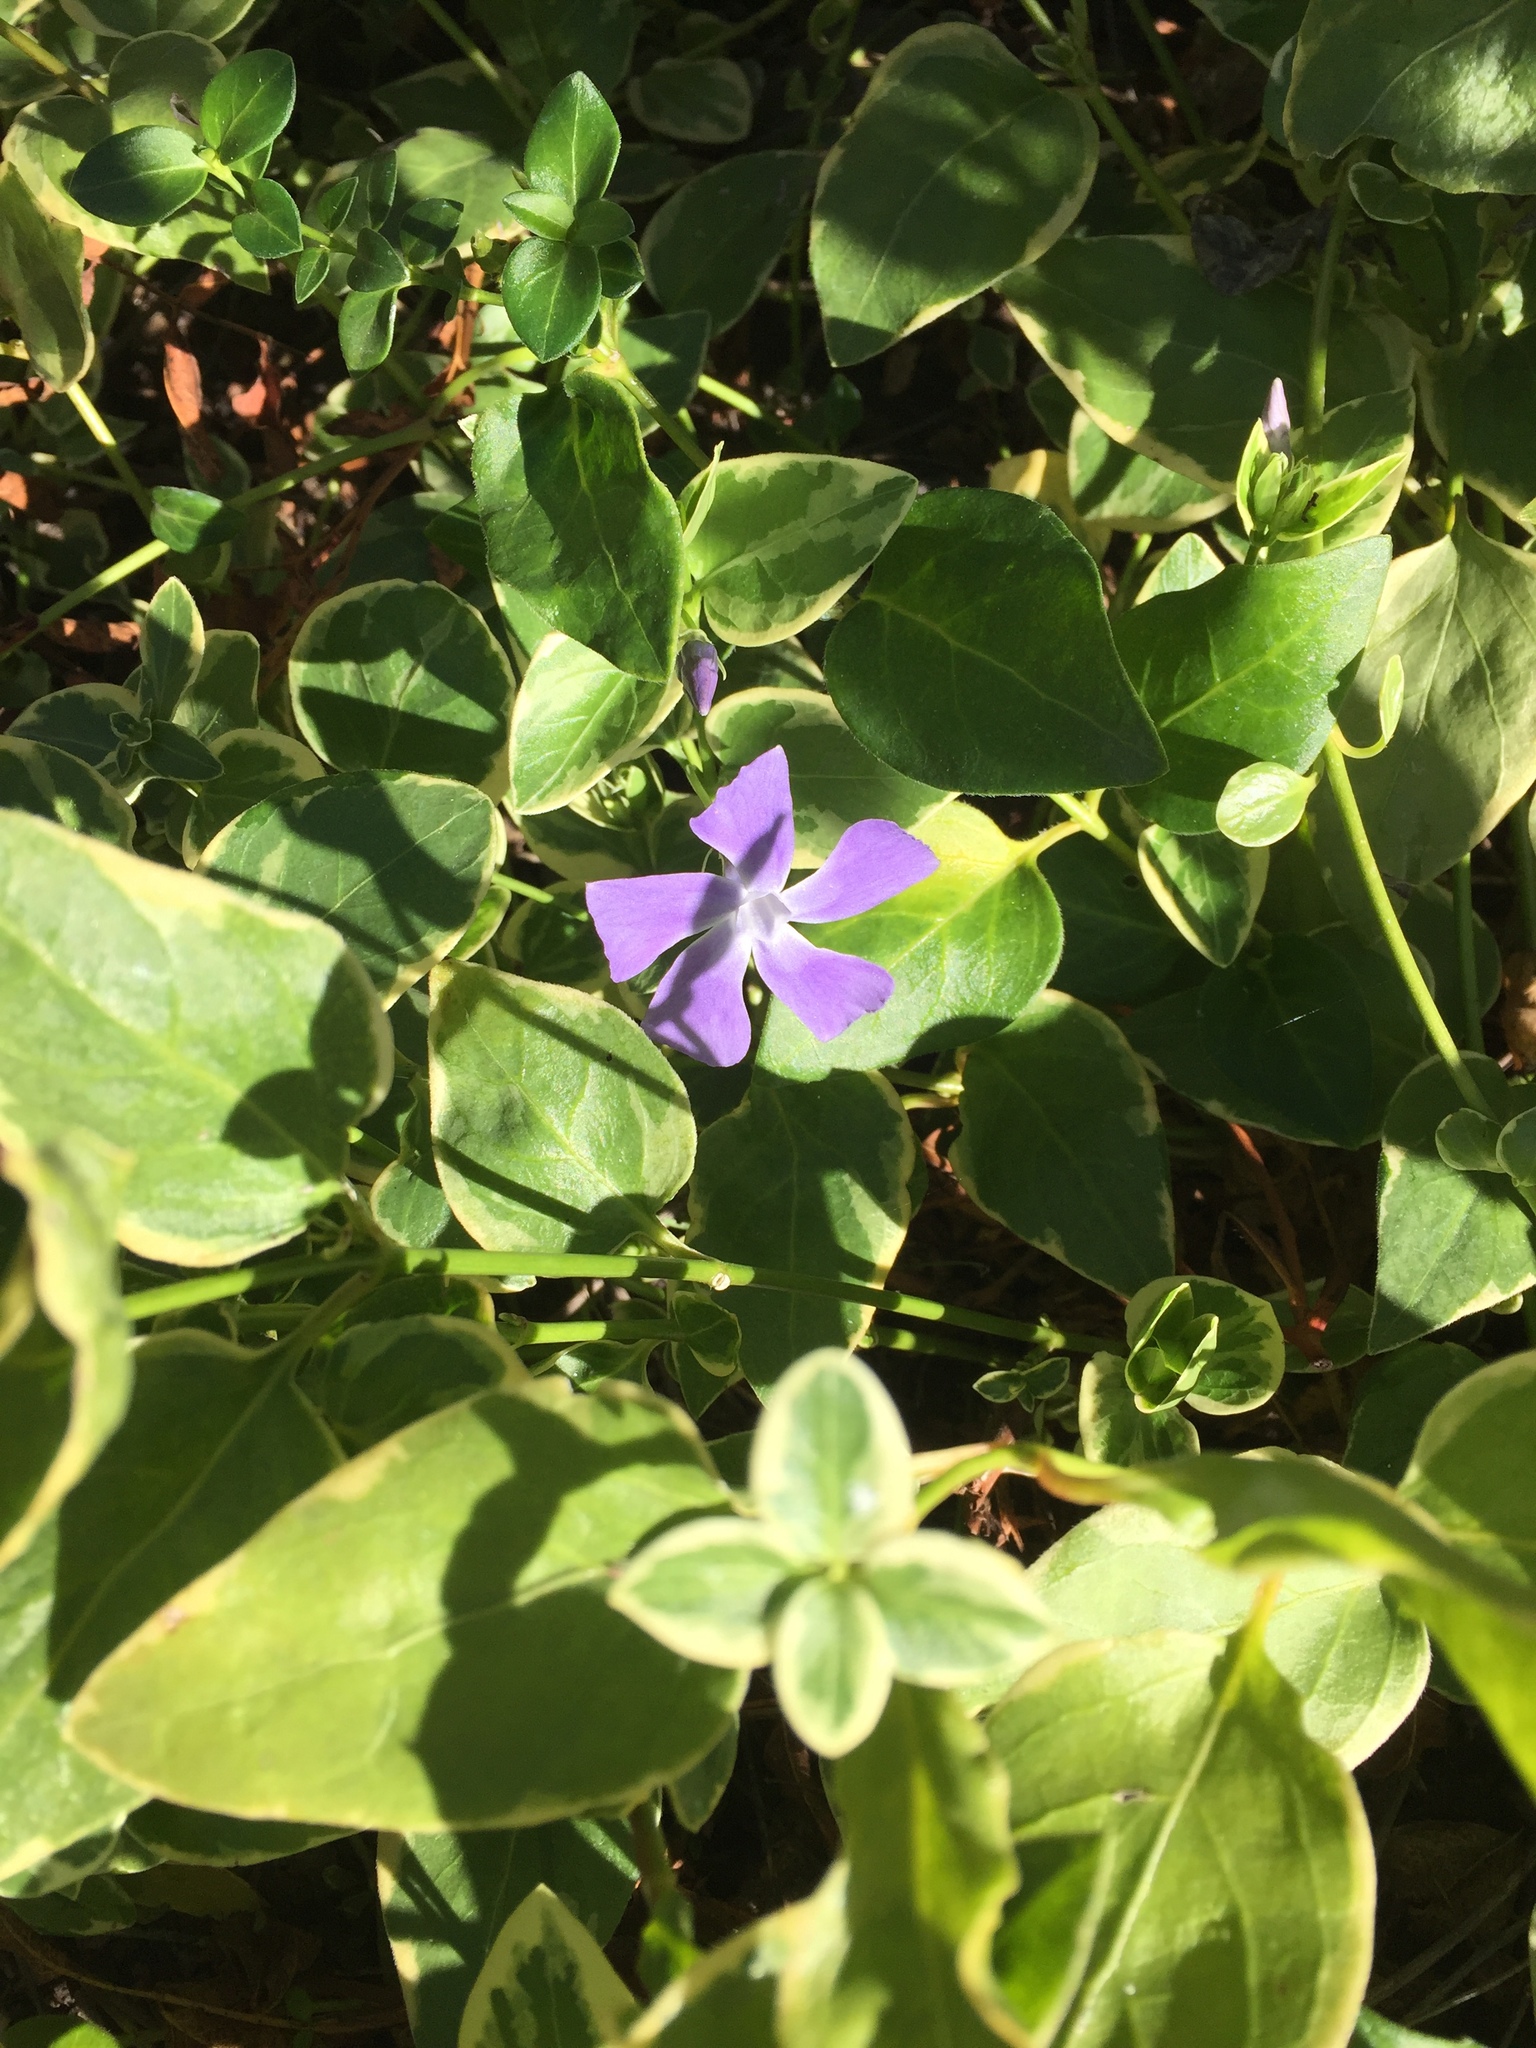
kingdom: Plantae
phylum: Tracheophyta
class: Magnoliopsida
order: Gentianales
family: Apocynaceae
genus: Vinca
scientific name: Vinca major
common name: Greater periwinkle
